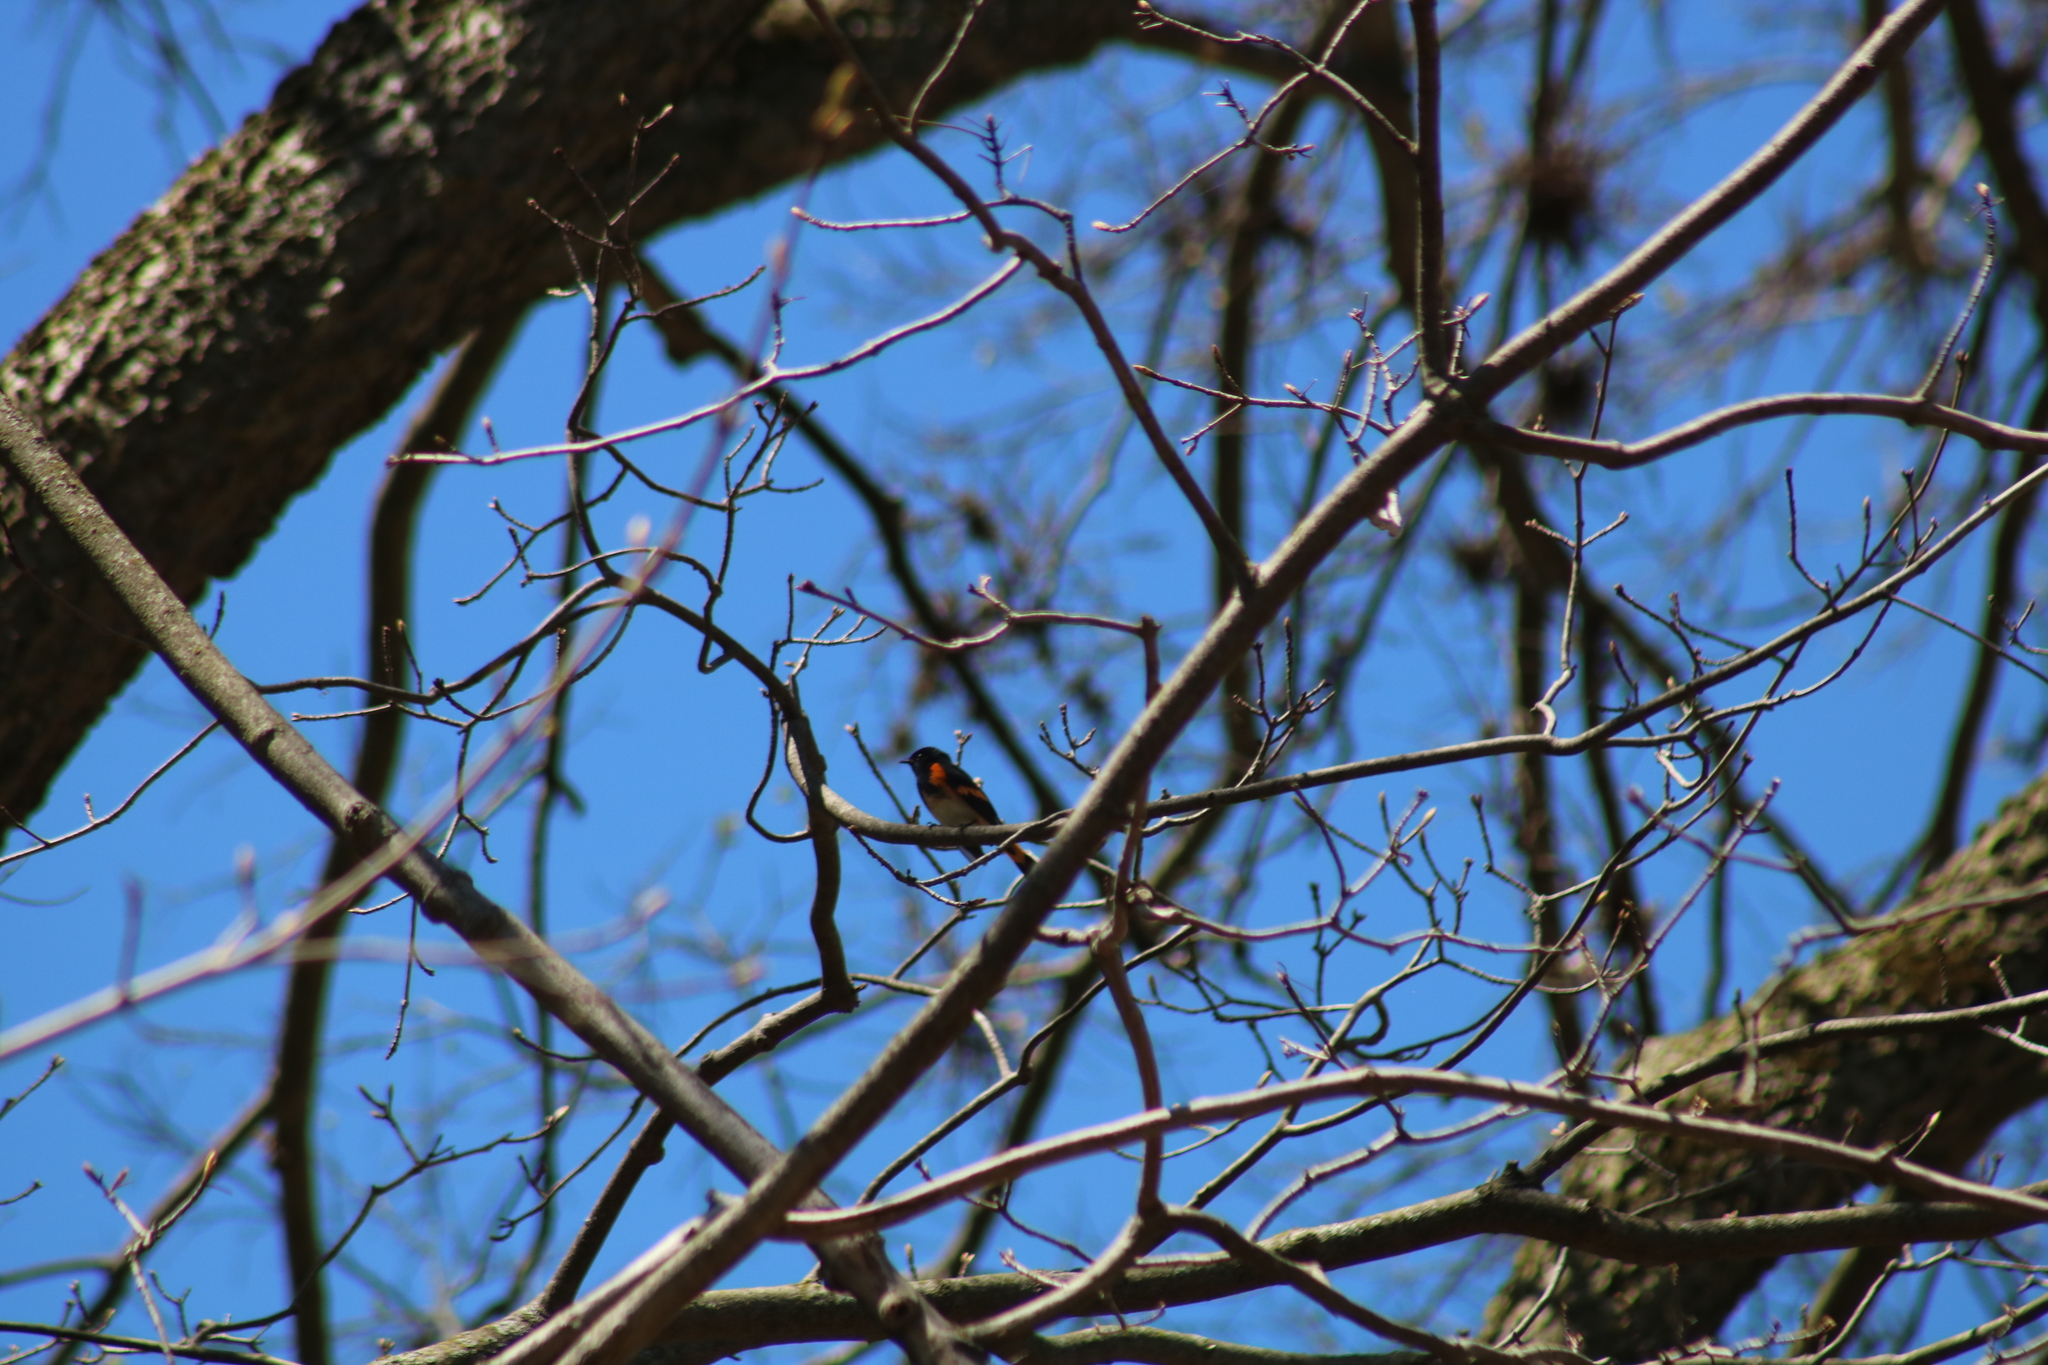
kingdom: Animalia
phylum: Chordata
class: Aves
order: Passeriformes
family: Parulidae
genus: Setophaga
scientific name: Setophaga ruticilla
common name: American redstart
